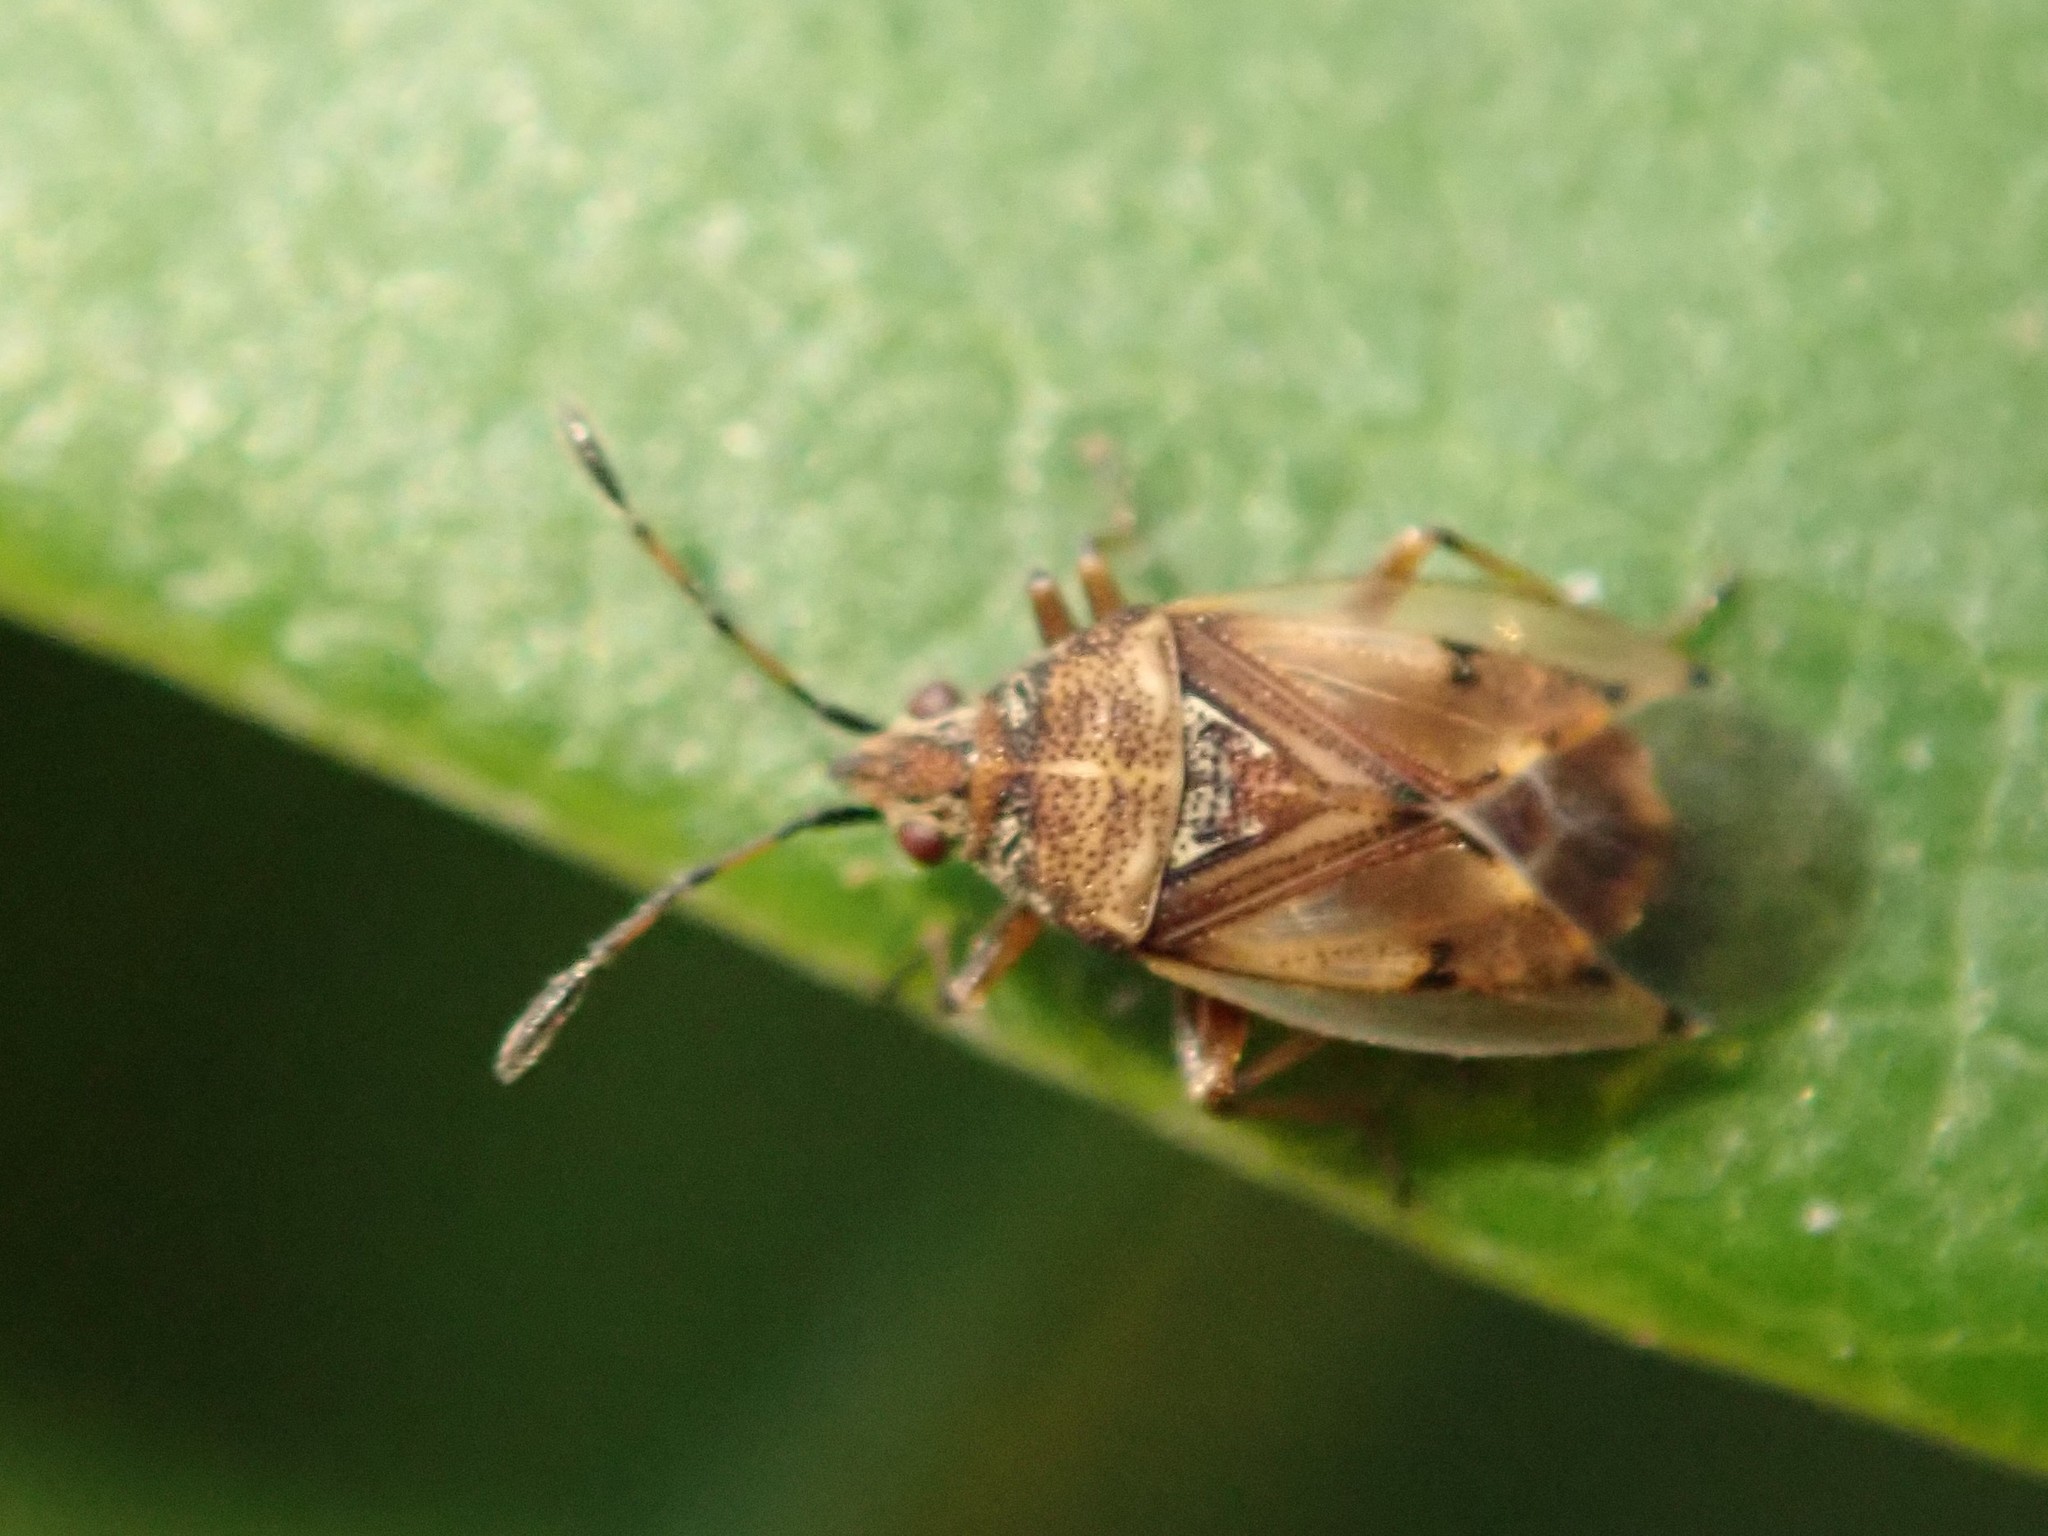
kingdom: Animalia
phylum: Arthropoda
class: Insecta
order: Hemiptera
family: Lygaeidae
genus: Kleidocerys
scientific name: Kleidocerys resedae
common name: Birch catkin bug
